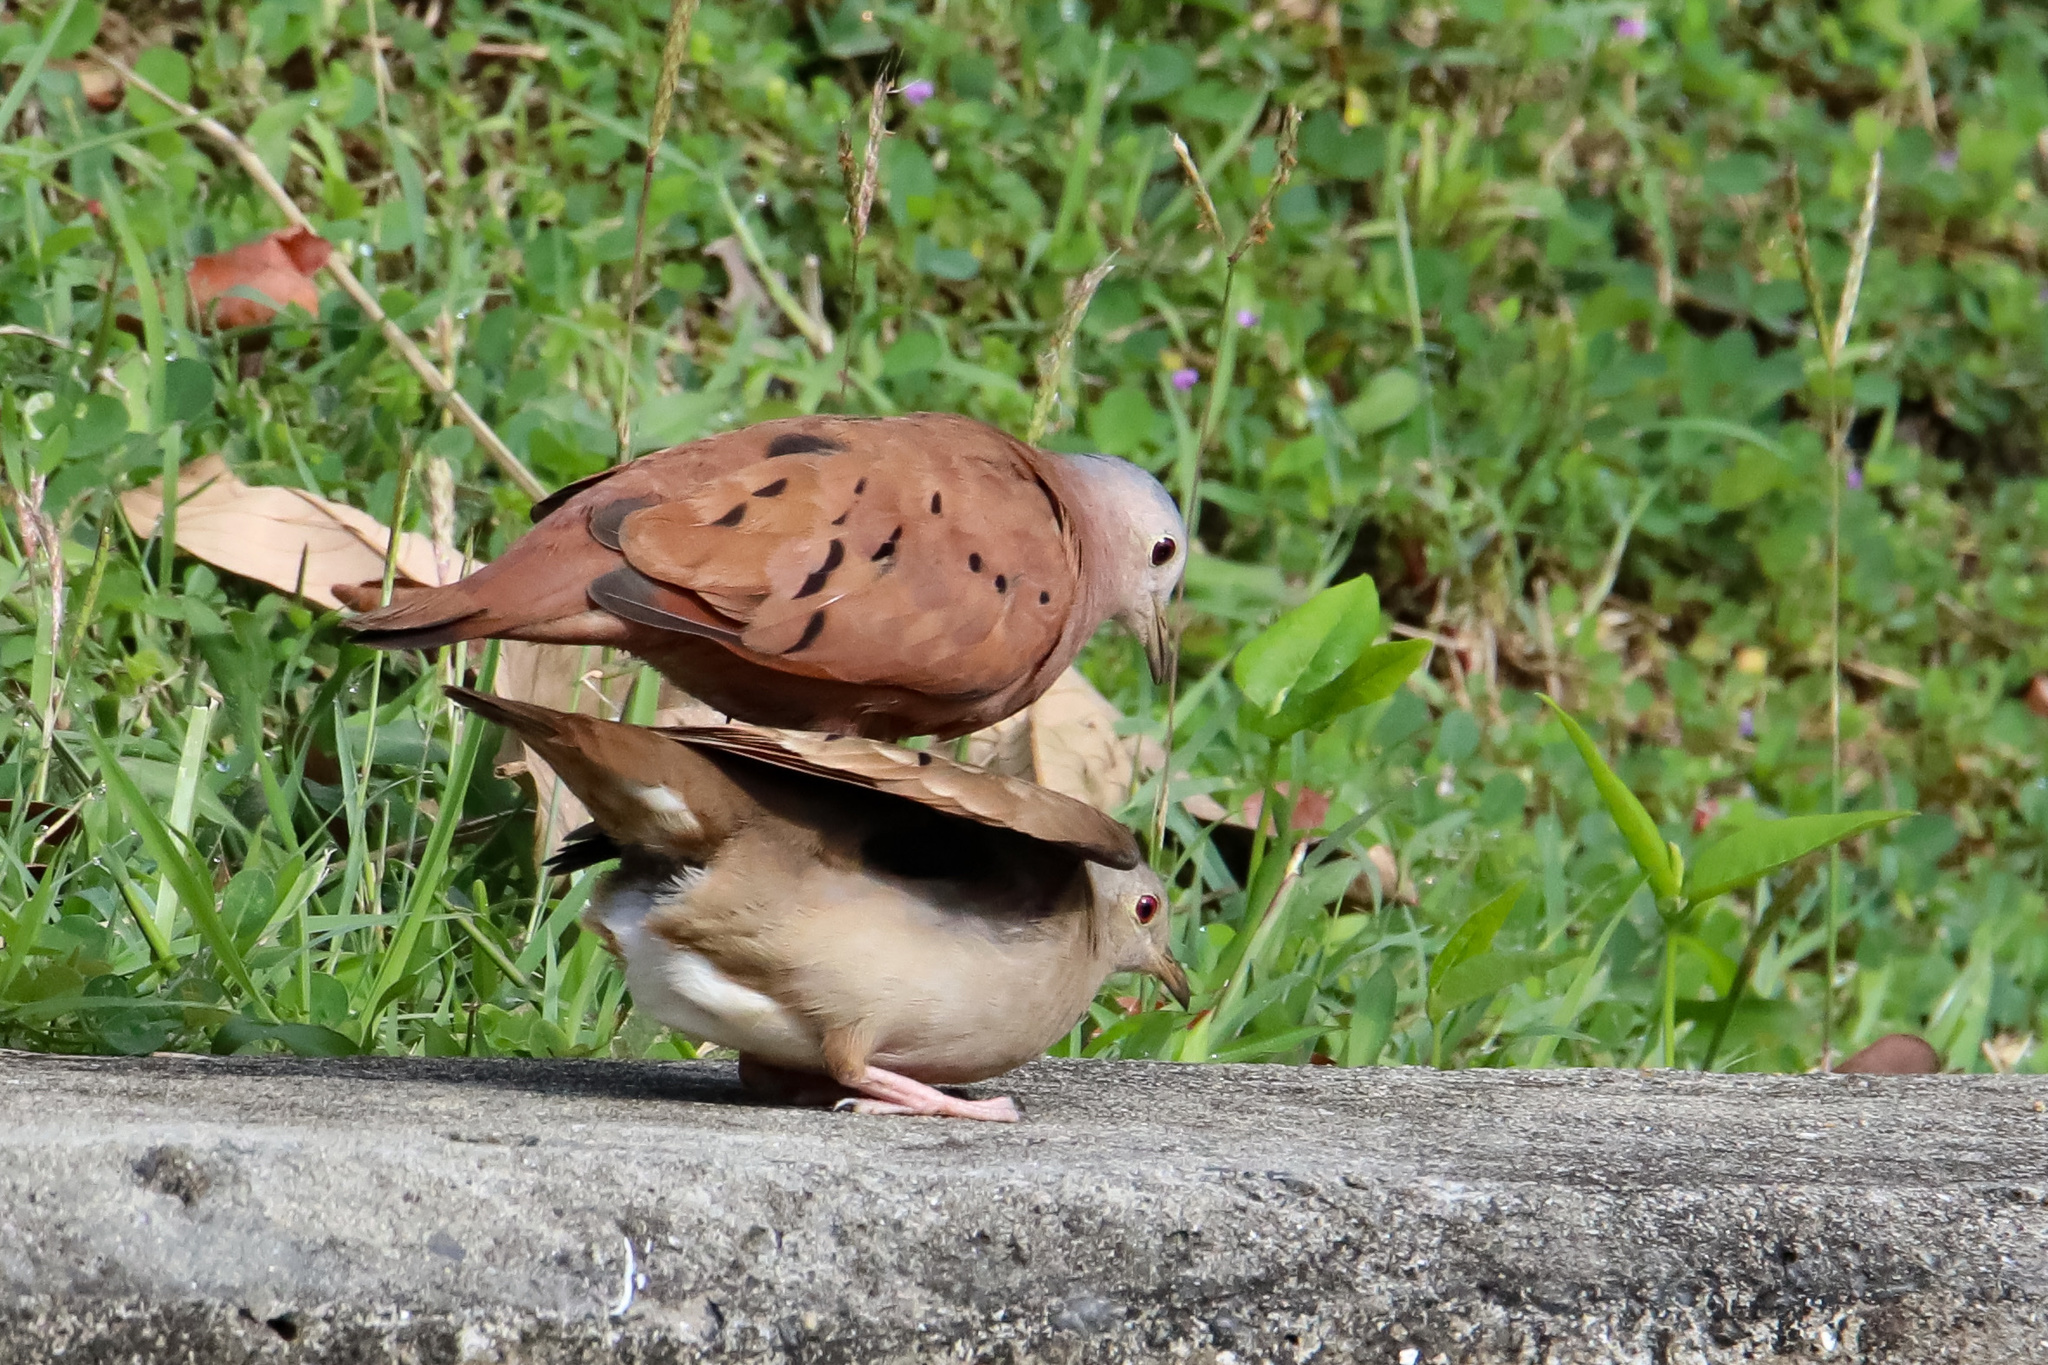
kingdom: Animalia
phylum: Chordata
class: Aves
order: Columbiformes
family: Columbidae
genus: Columbina
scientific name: Columbina talpacoti
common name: Ruddy ground dove
